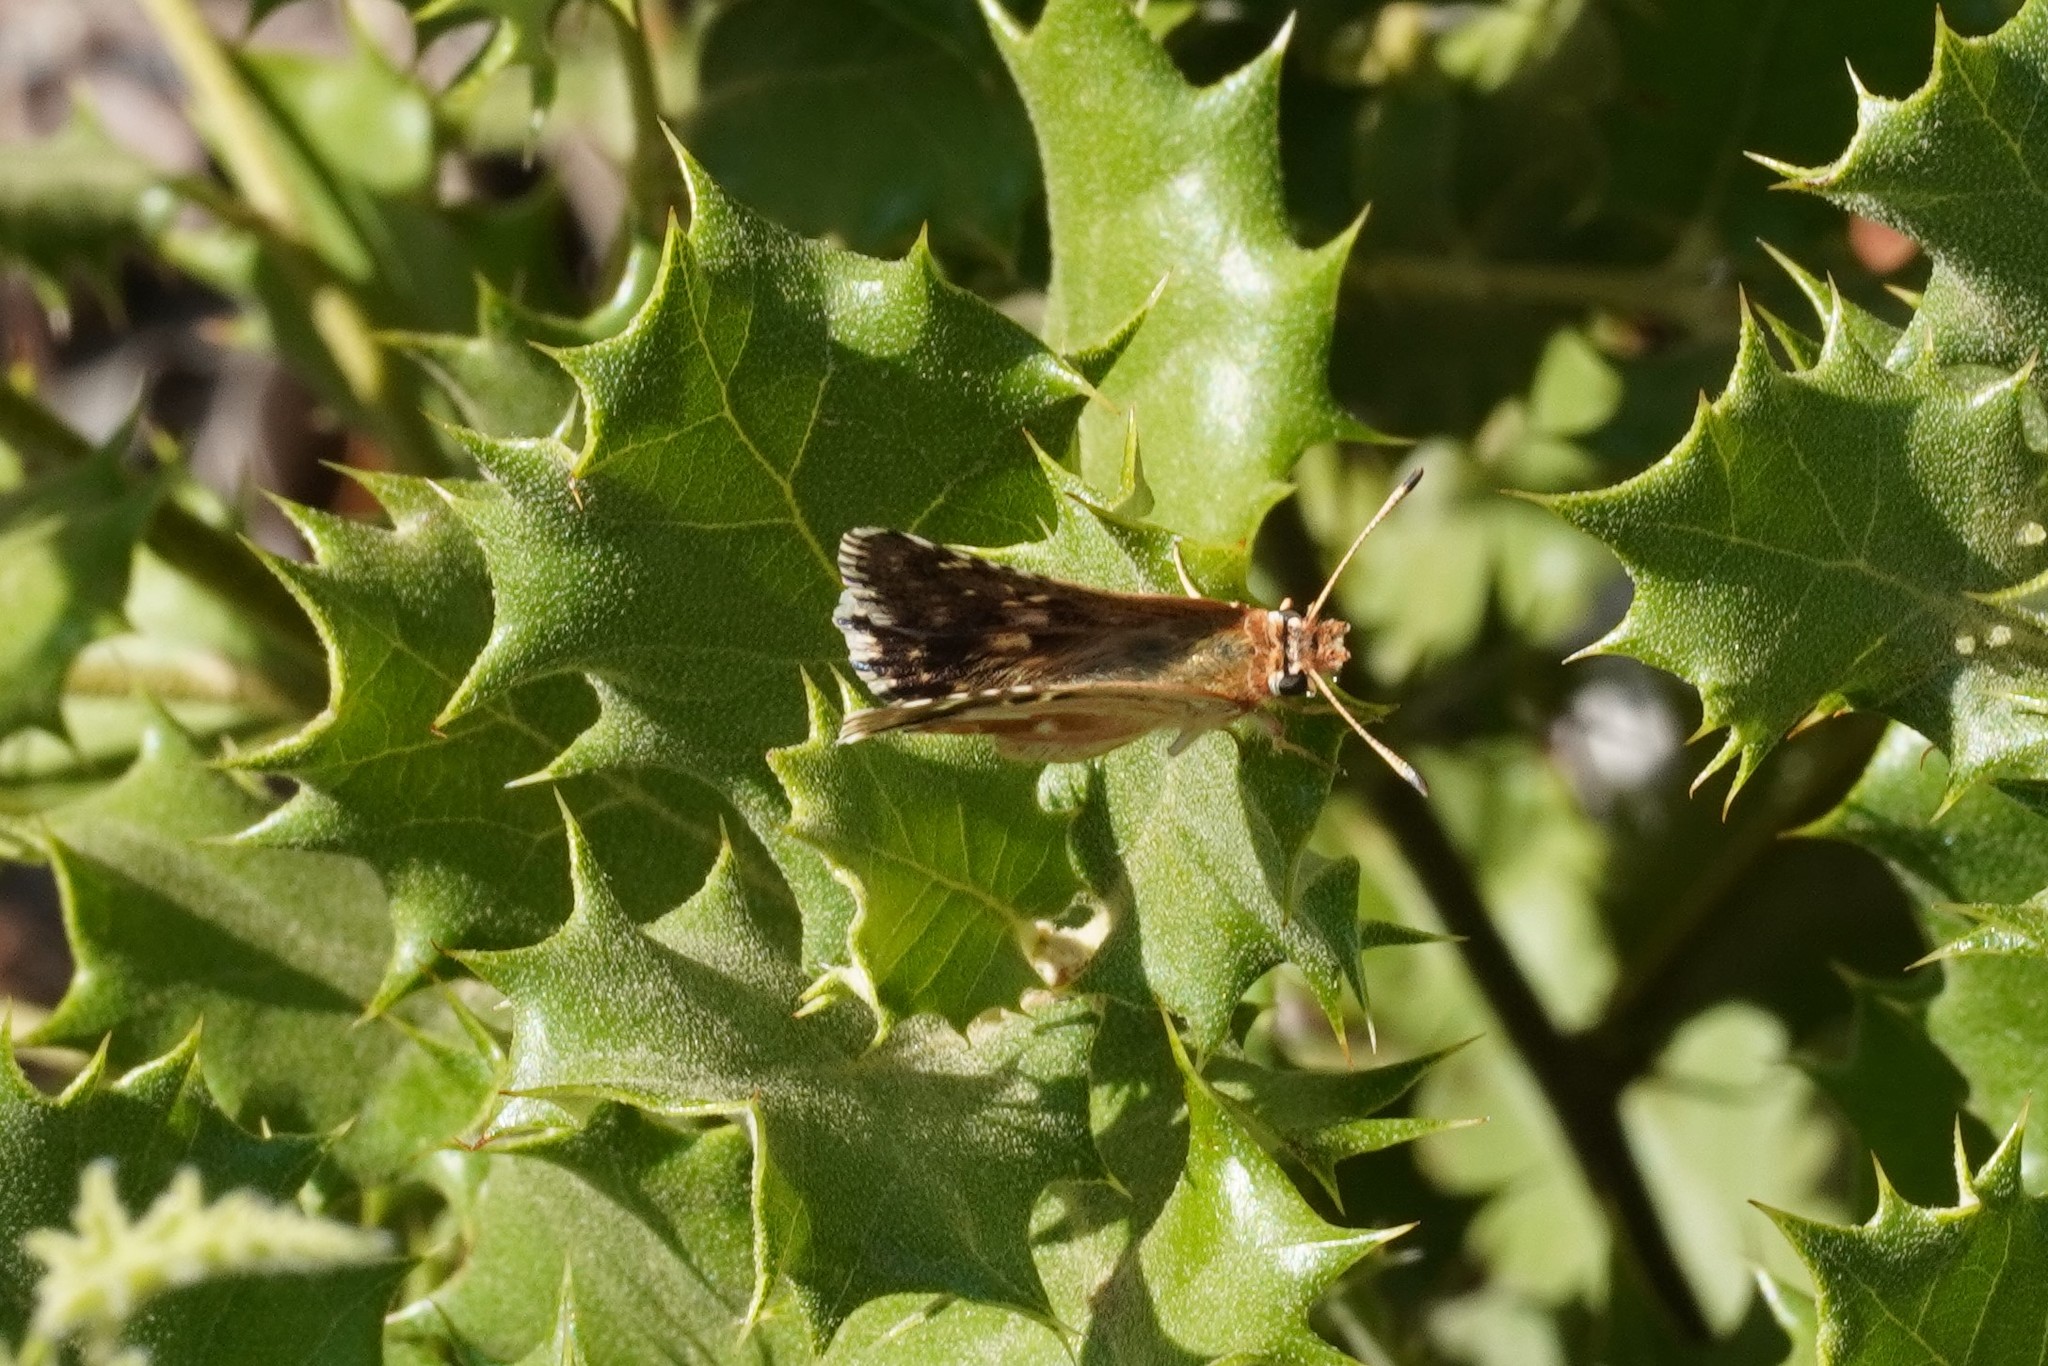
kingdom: Animalia
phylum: Arthropoda
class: Insecta
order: Lepidoptera
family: Hesperiidae
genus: Syrichtus
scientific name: Syrichtus Muschampia proto
